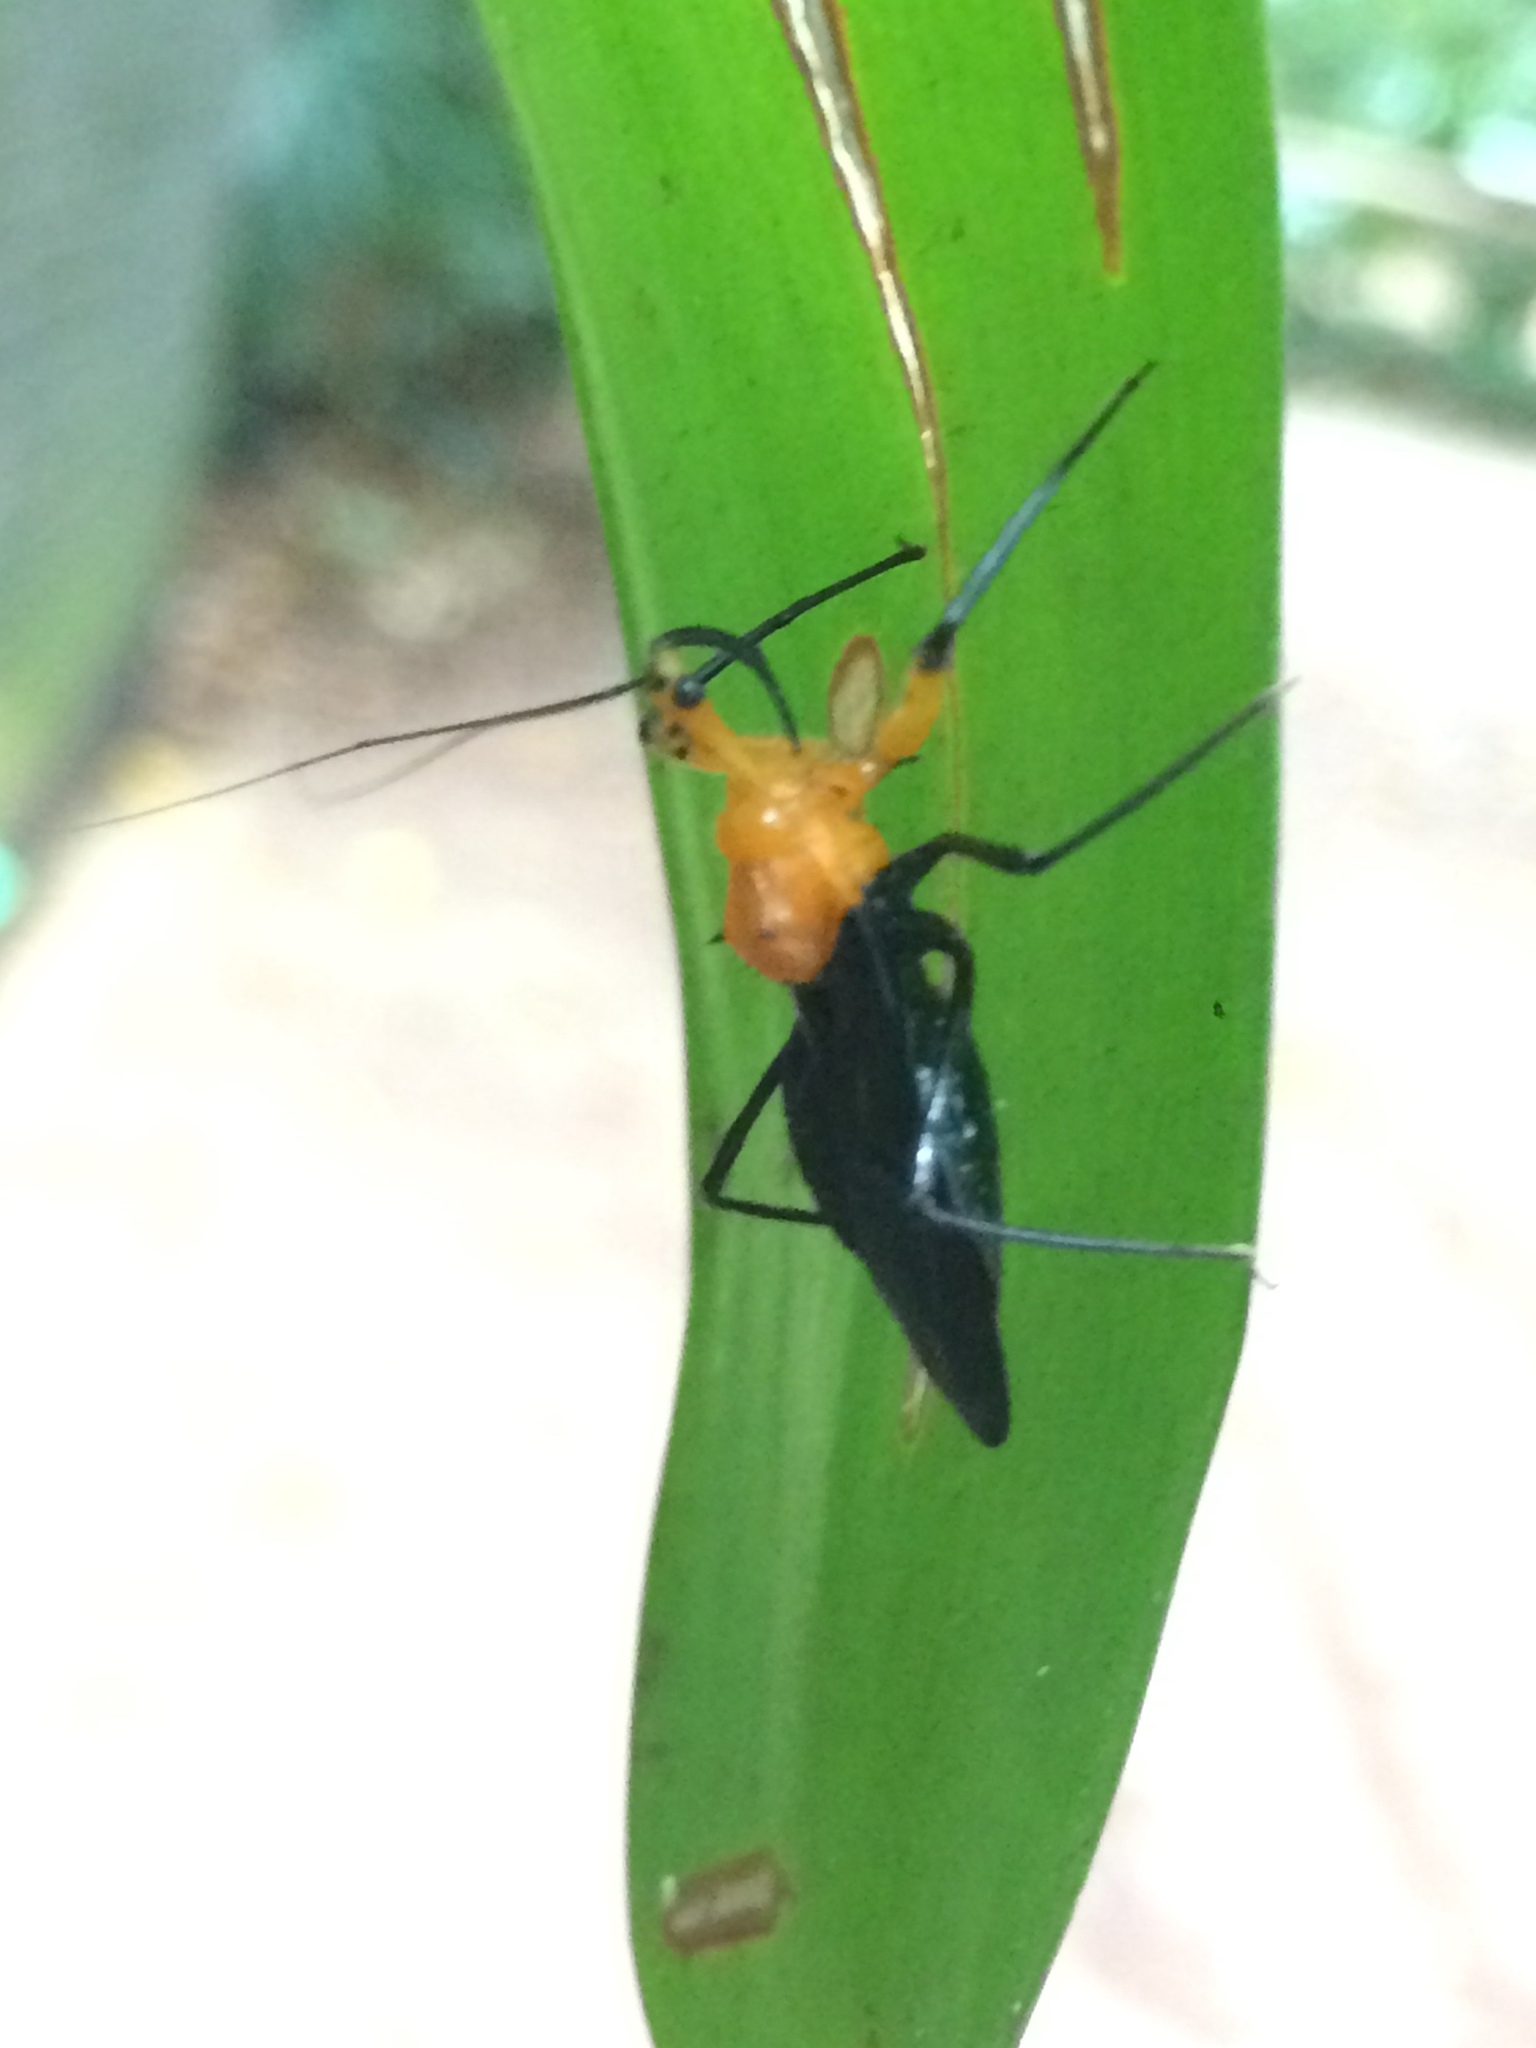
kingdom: Animalia
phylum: Arthropoda
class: Insecta
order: Hemiptera
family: Reduviidae
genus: Acanthischium
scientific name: Acanthischium superbum
